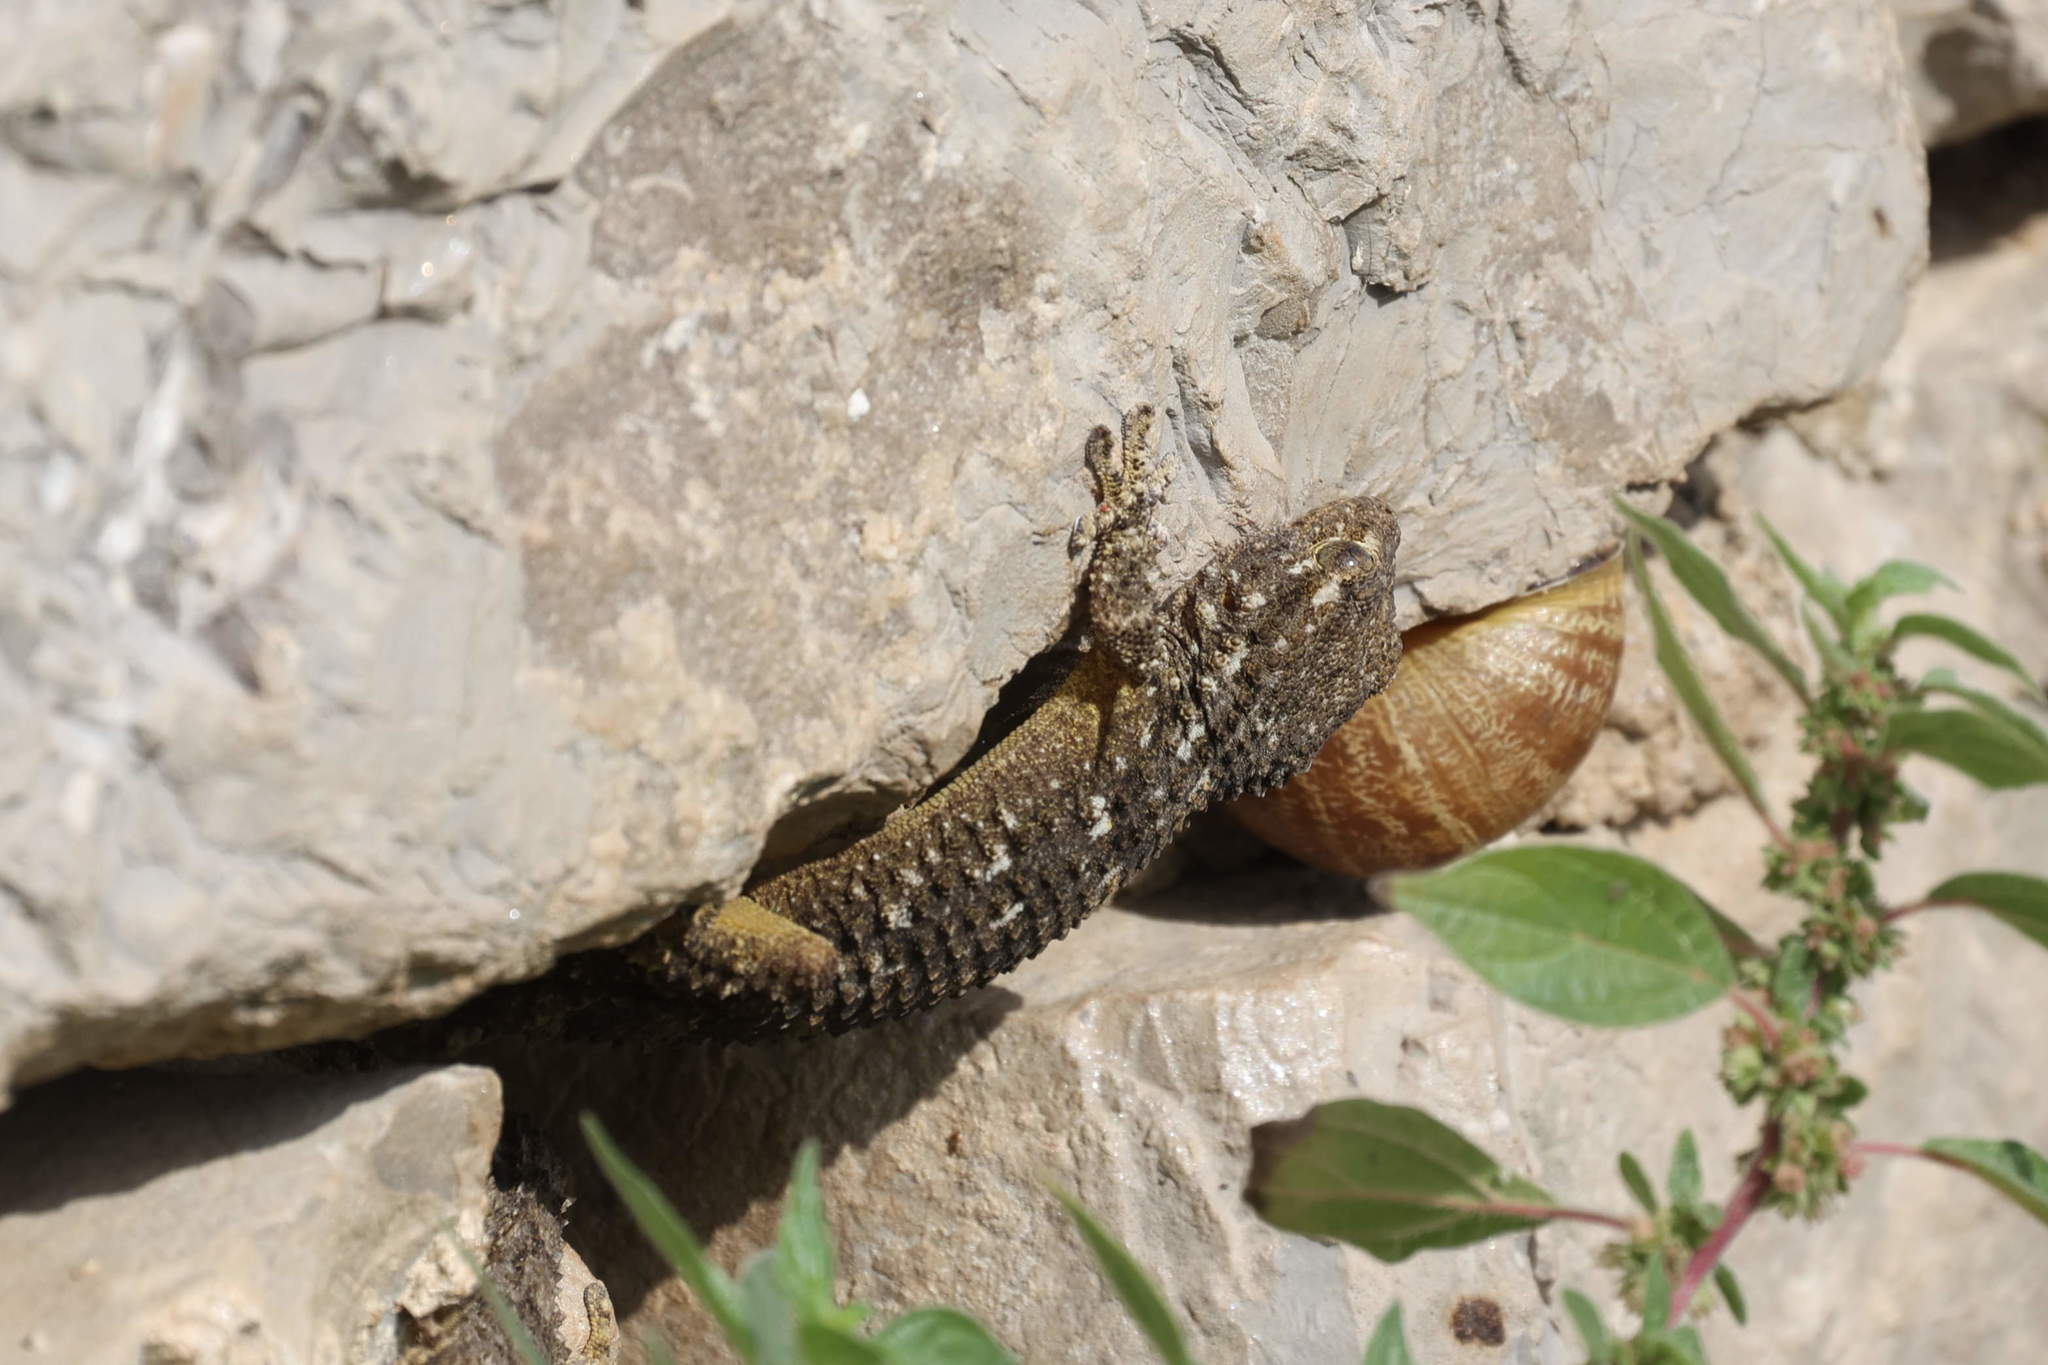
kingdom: Animalia
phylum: Chordata
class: Squamata
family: Phyllodactylidae
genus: Tarentola
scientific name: Tarentola mauritanica
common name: Moorish gecko
